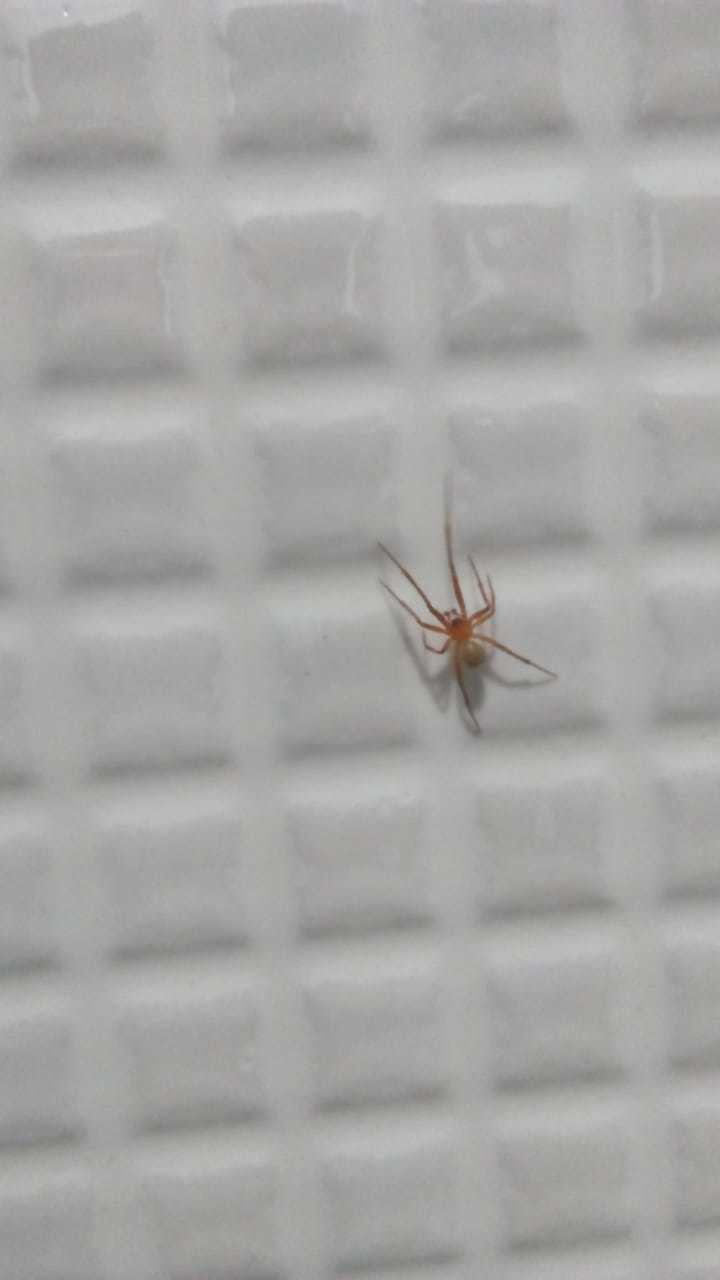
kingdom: Animalia
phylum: Arthropoda
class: Arachnida
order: Araneae
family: Theridiidae
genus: Nesticodes
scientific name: Nesticodes rufipes
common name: Cobweb spiders
